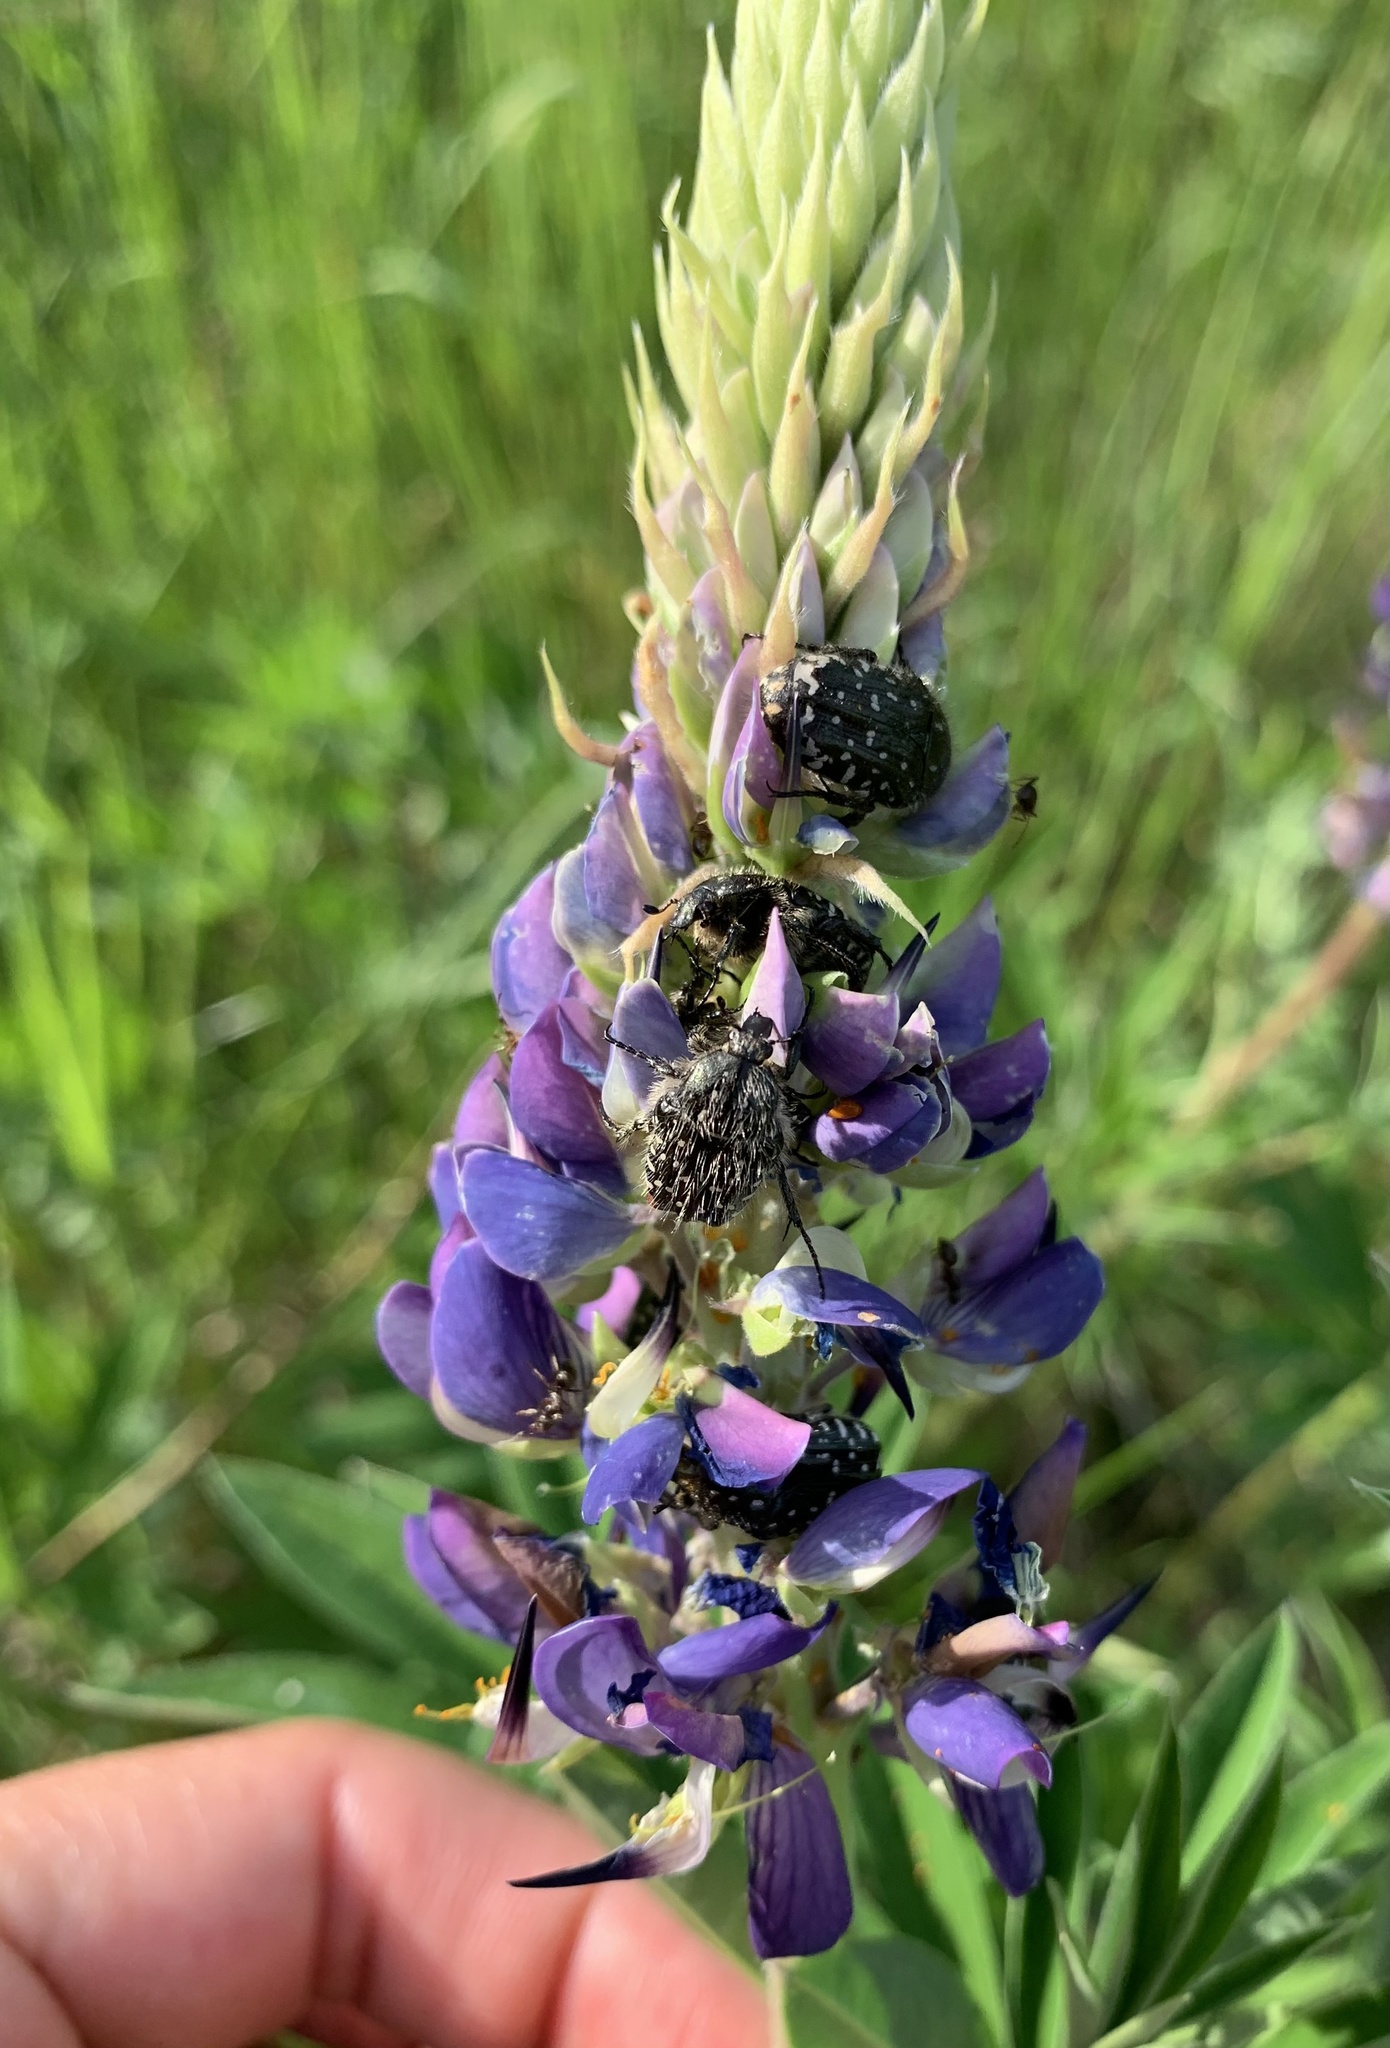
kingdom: Animalia
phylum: Arthropoda
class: Insecta
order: Coleoptera
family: Scarabaeidae
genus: Oxythyrea
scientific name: Oxythyrea funesta
